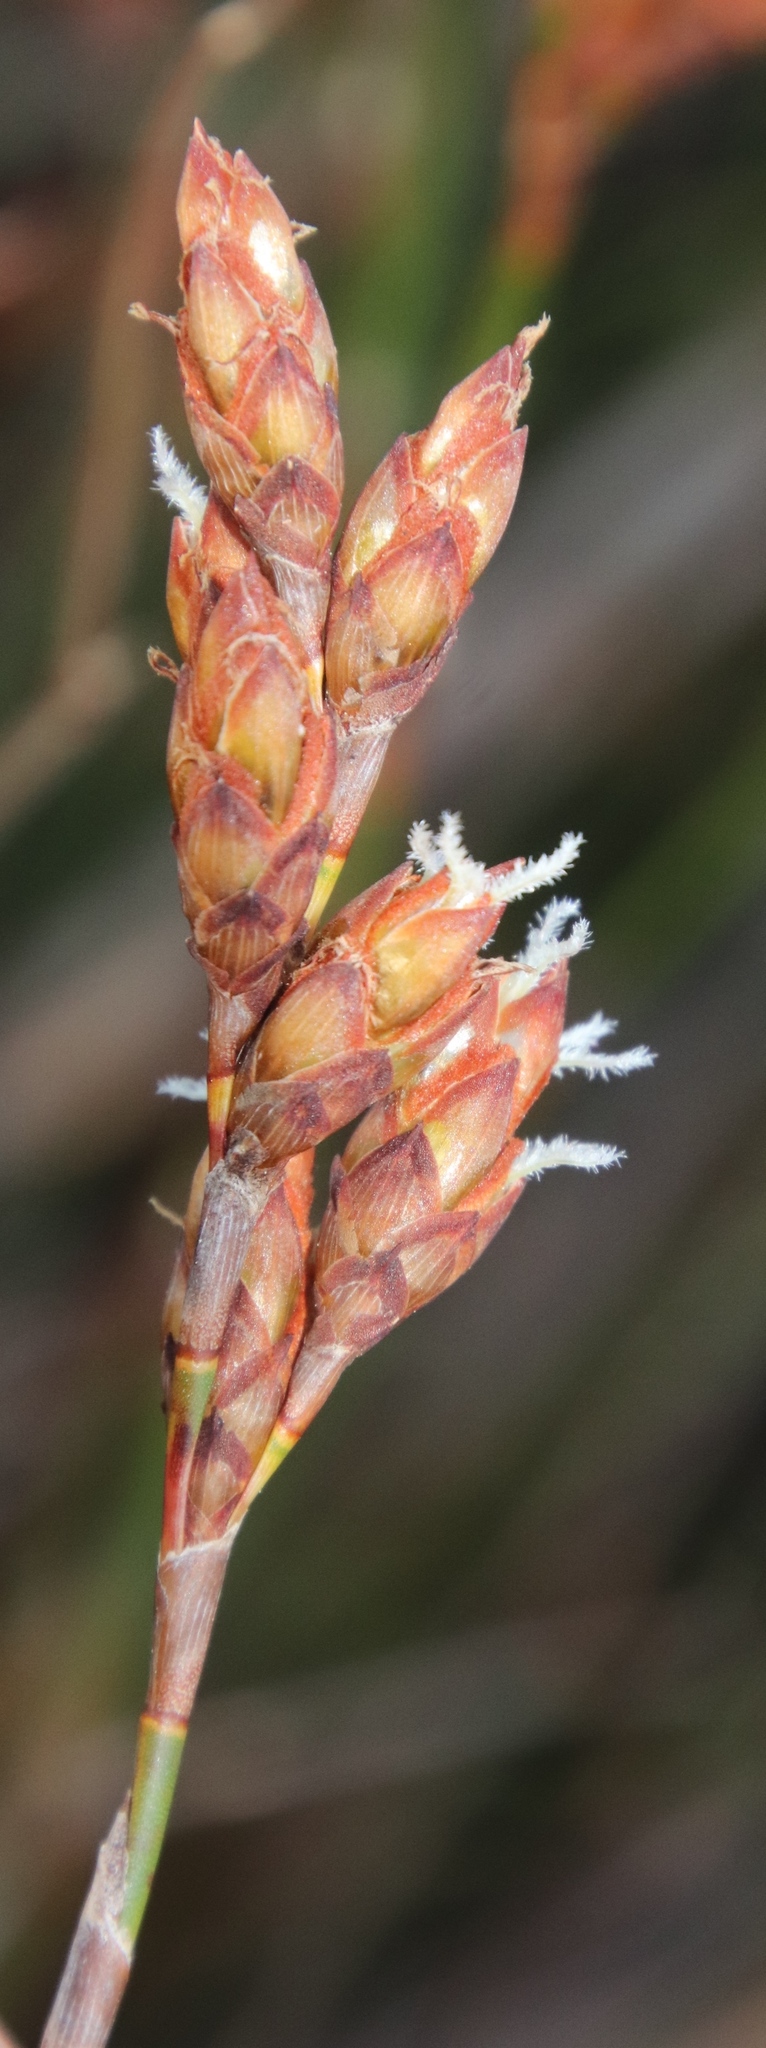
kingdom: Plantae
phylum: Tracheophyta
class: Liliopsida
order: Poales
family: Restionaceae
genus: Restio
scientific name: Restio bifurcus
